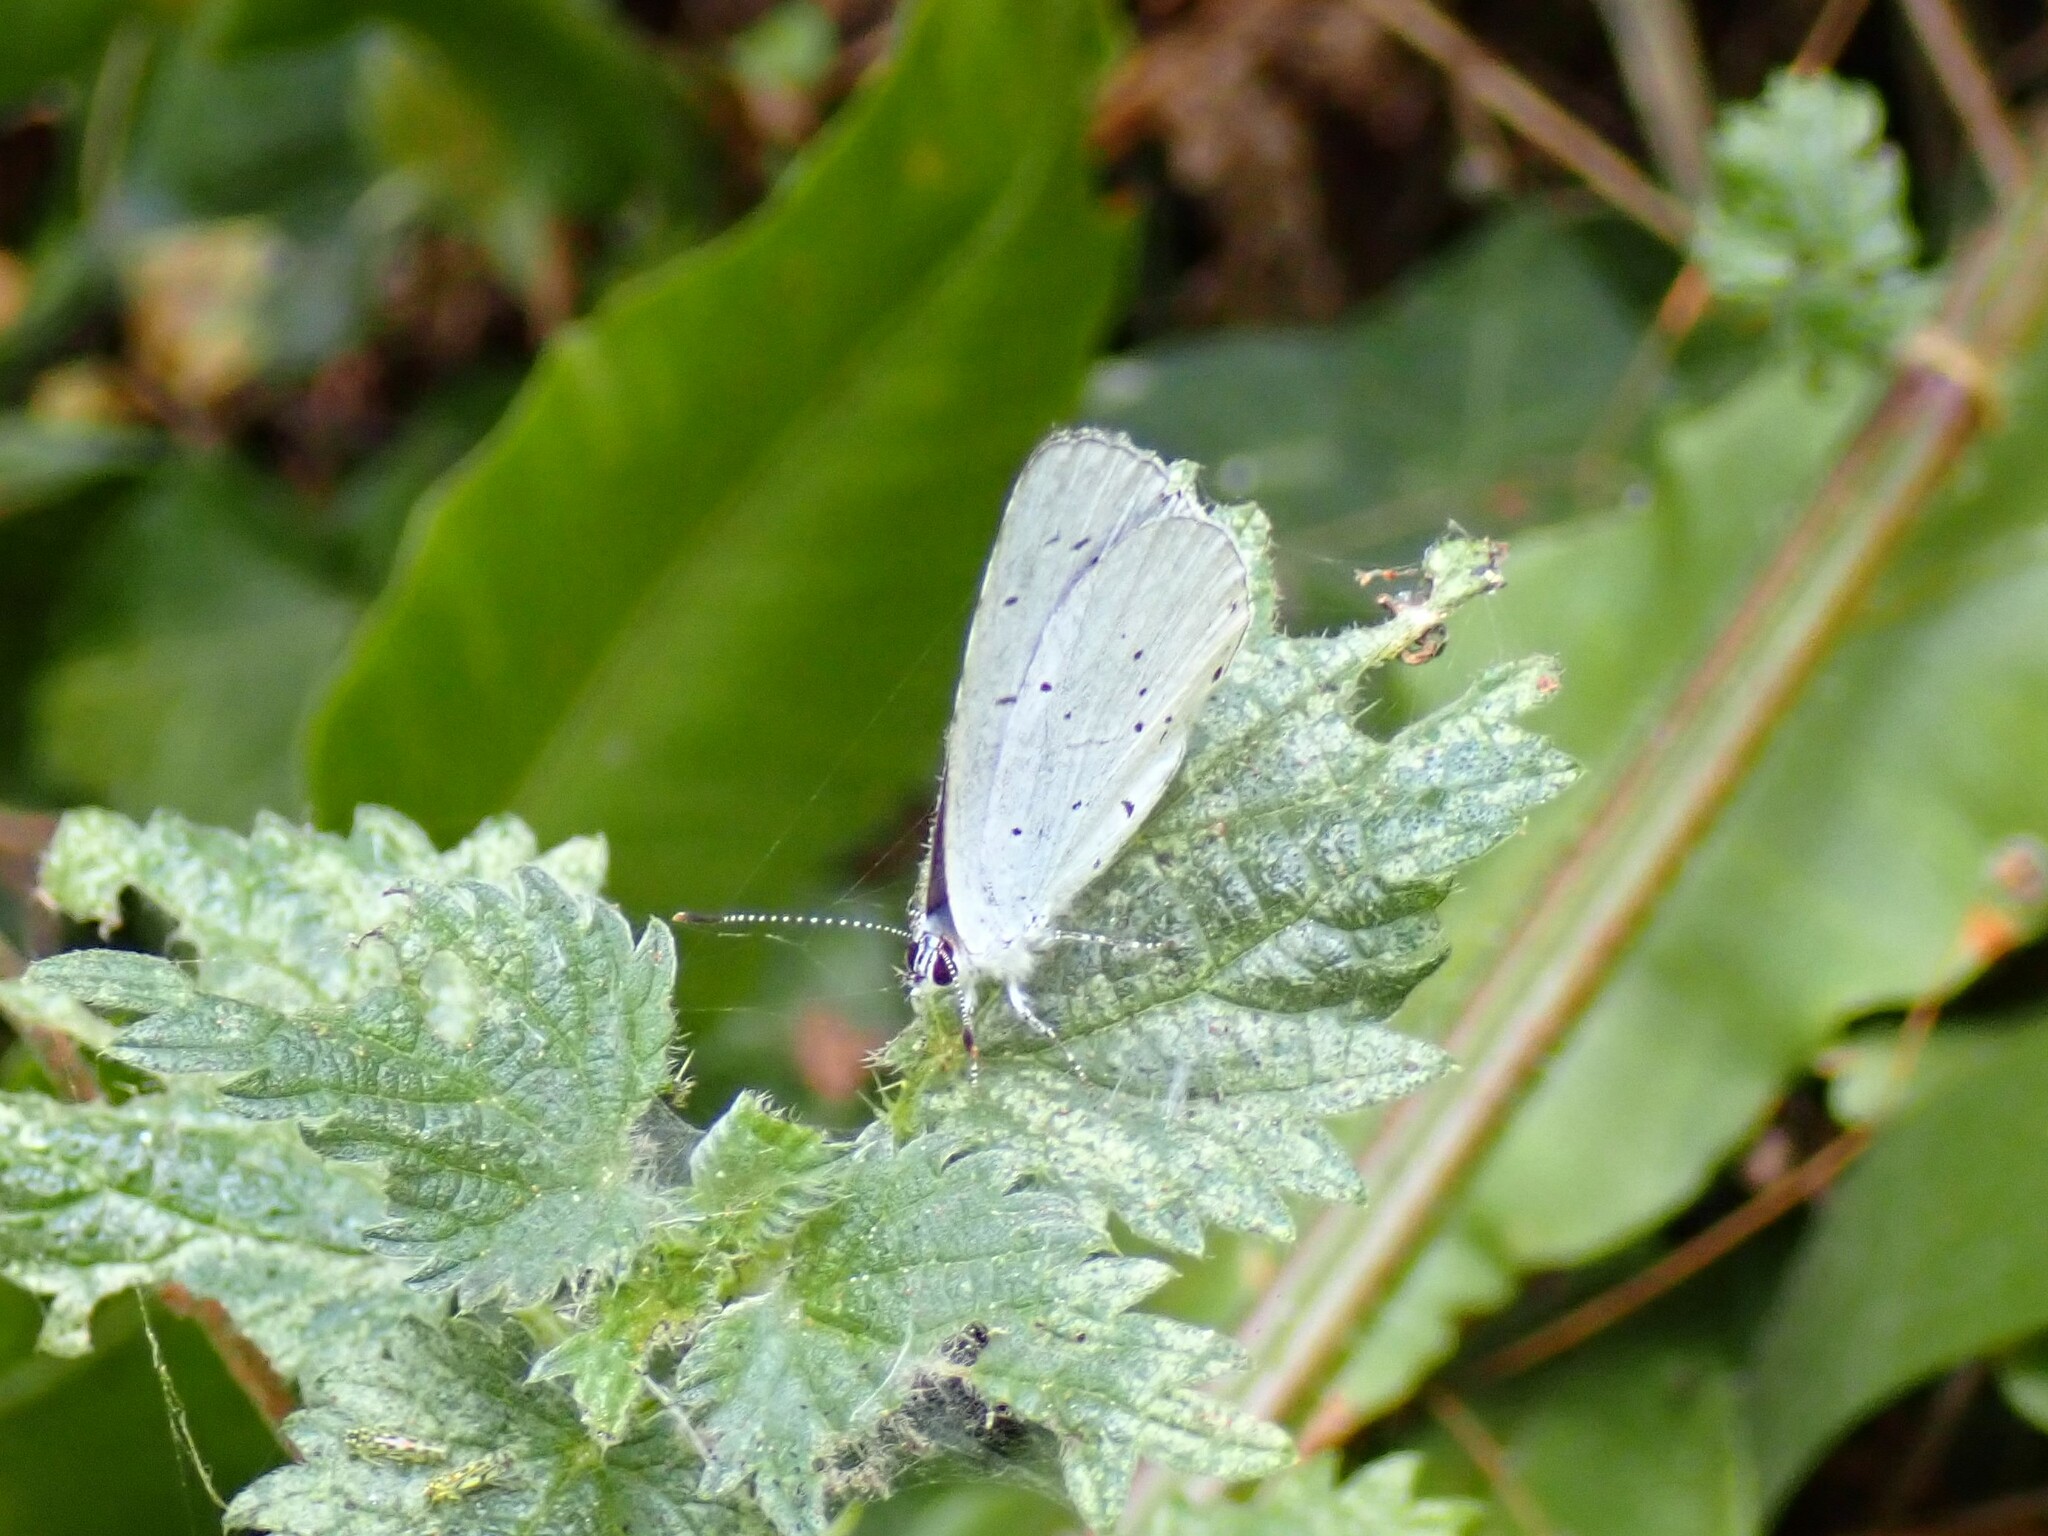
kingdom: Animalia
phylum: Arthropoda
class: Insecta
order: Lepidoptera
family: Lycaenidae
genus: Celastrina
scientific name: Celastrina argiolus
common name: Holly blue
